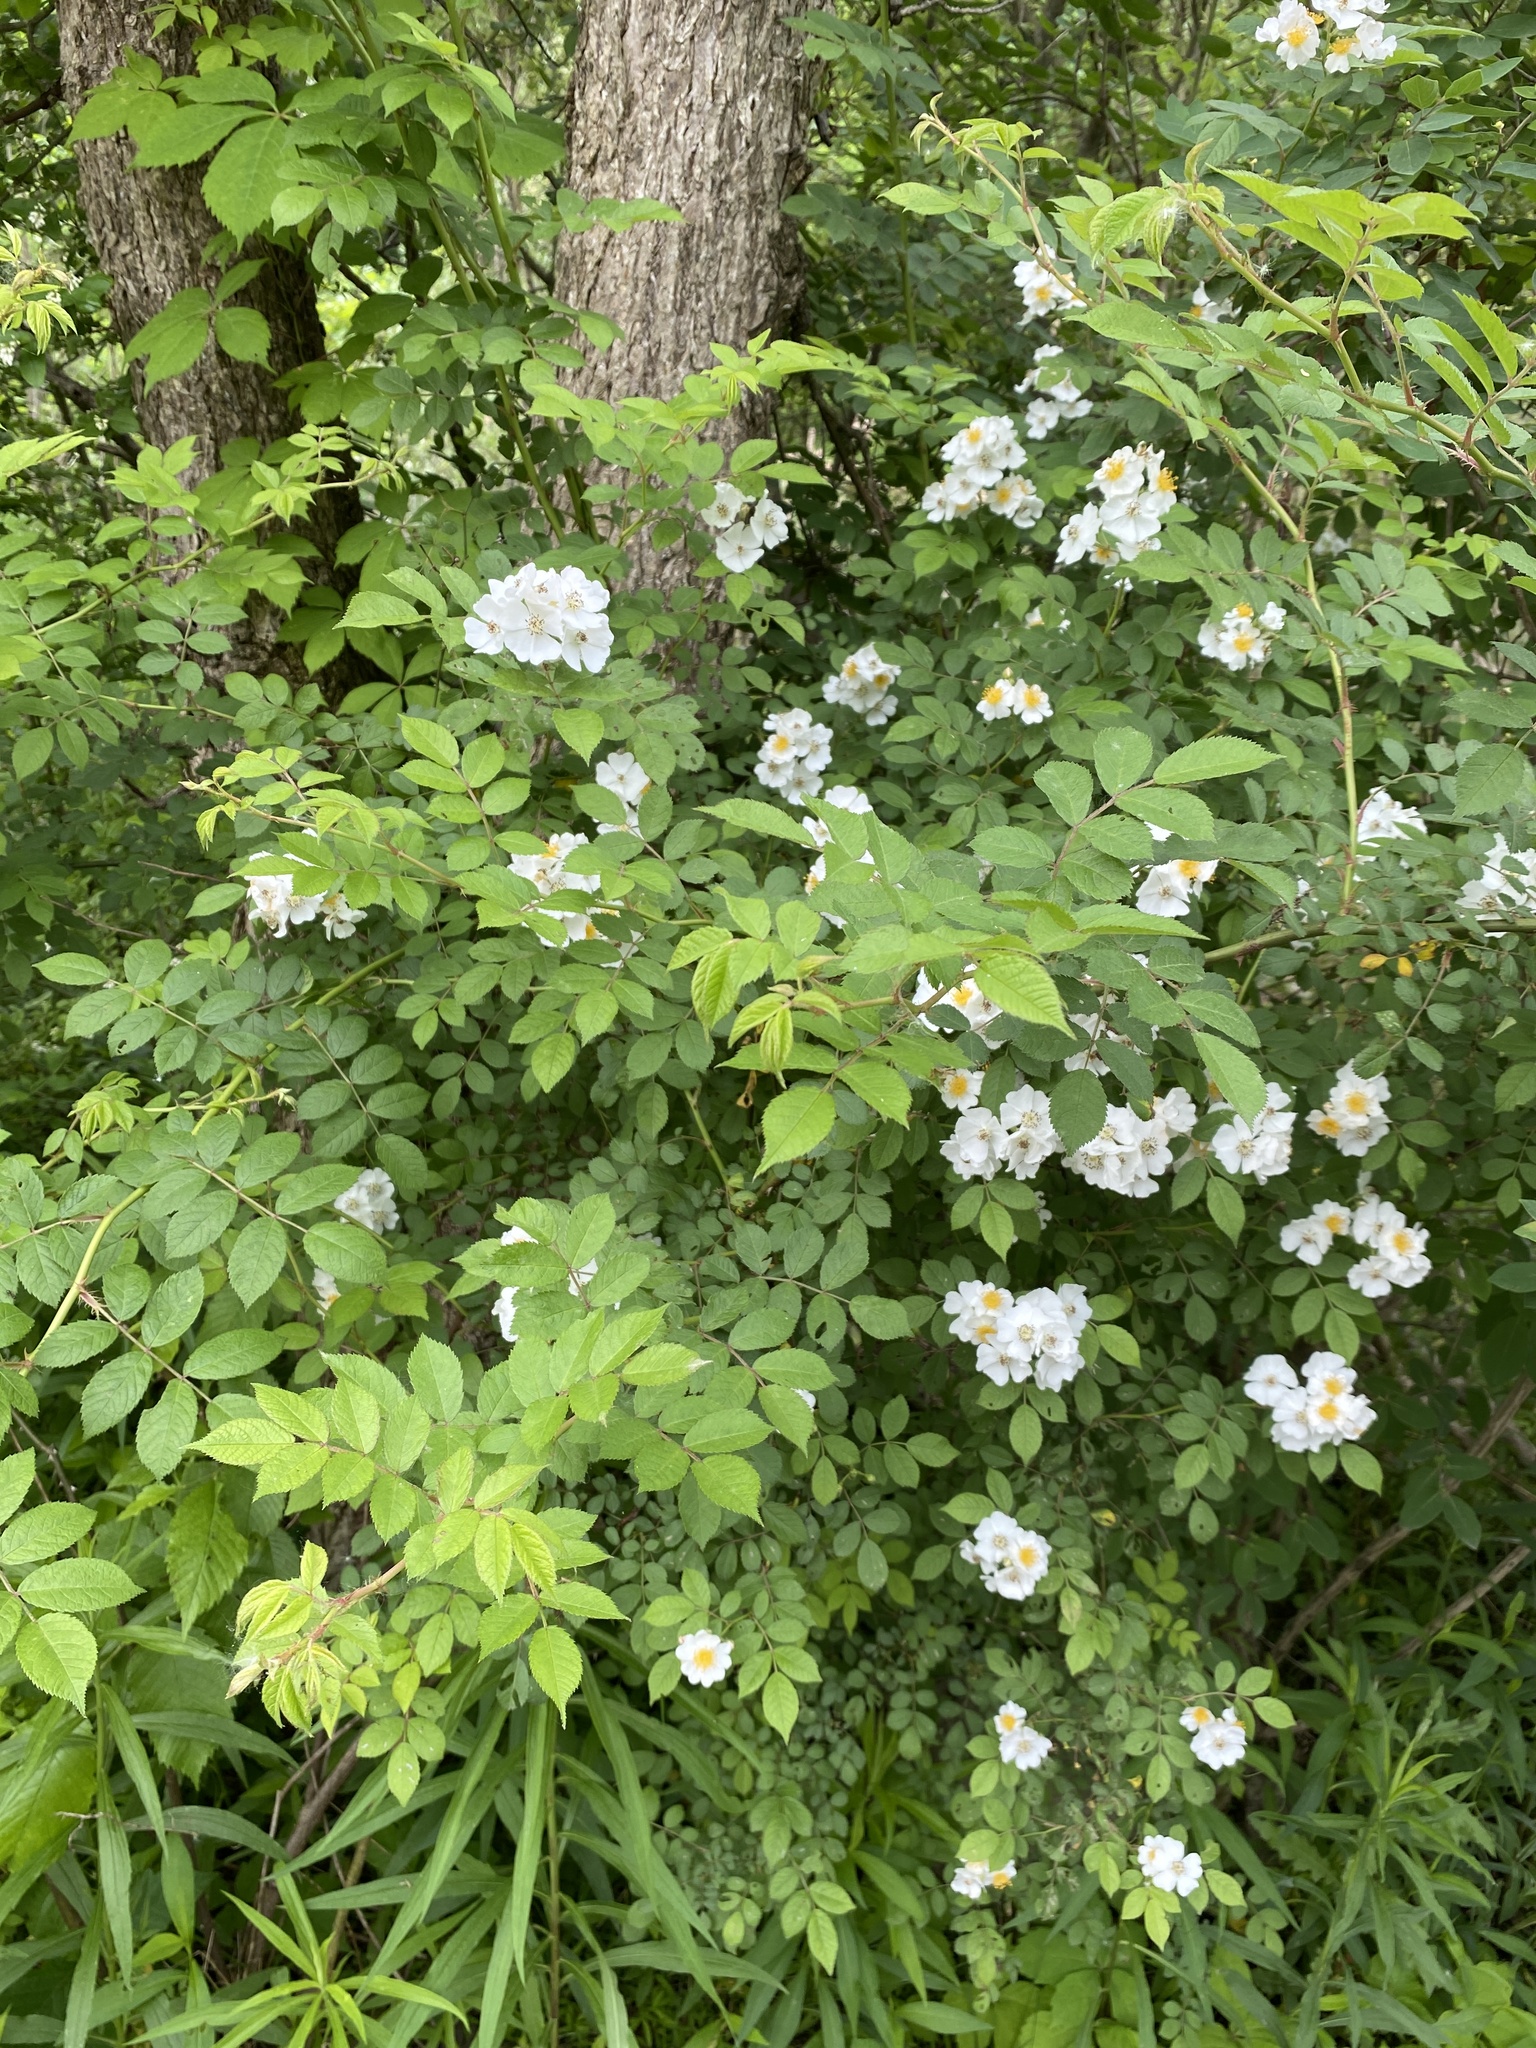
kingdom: Plantae
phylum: Tracheophyta
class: Magnoliopsida
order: Rosales
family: Rosaceae
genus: Rosa
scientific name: Rosa multiflora
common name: Multiflora rose
